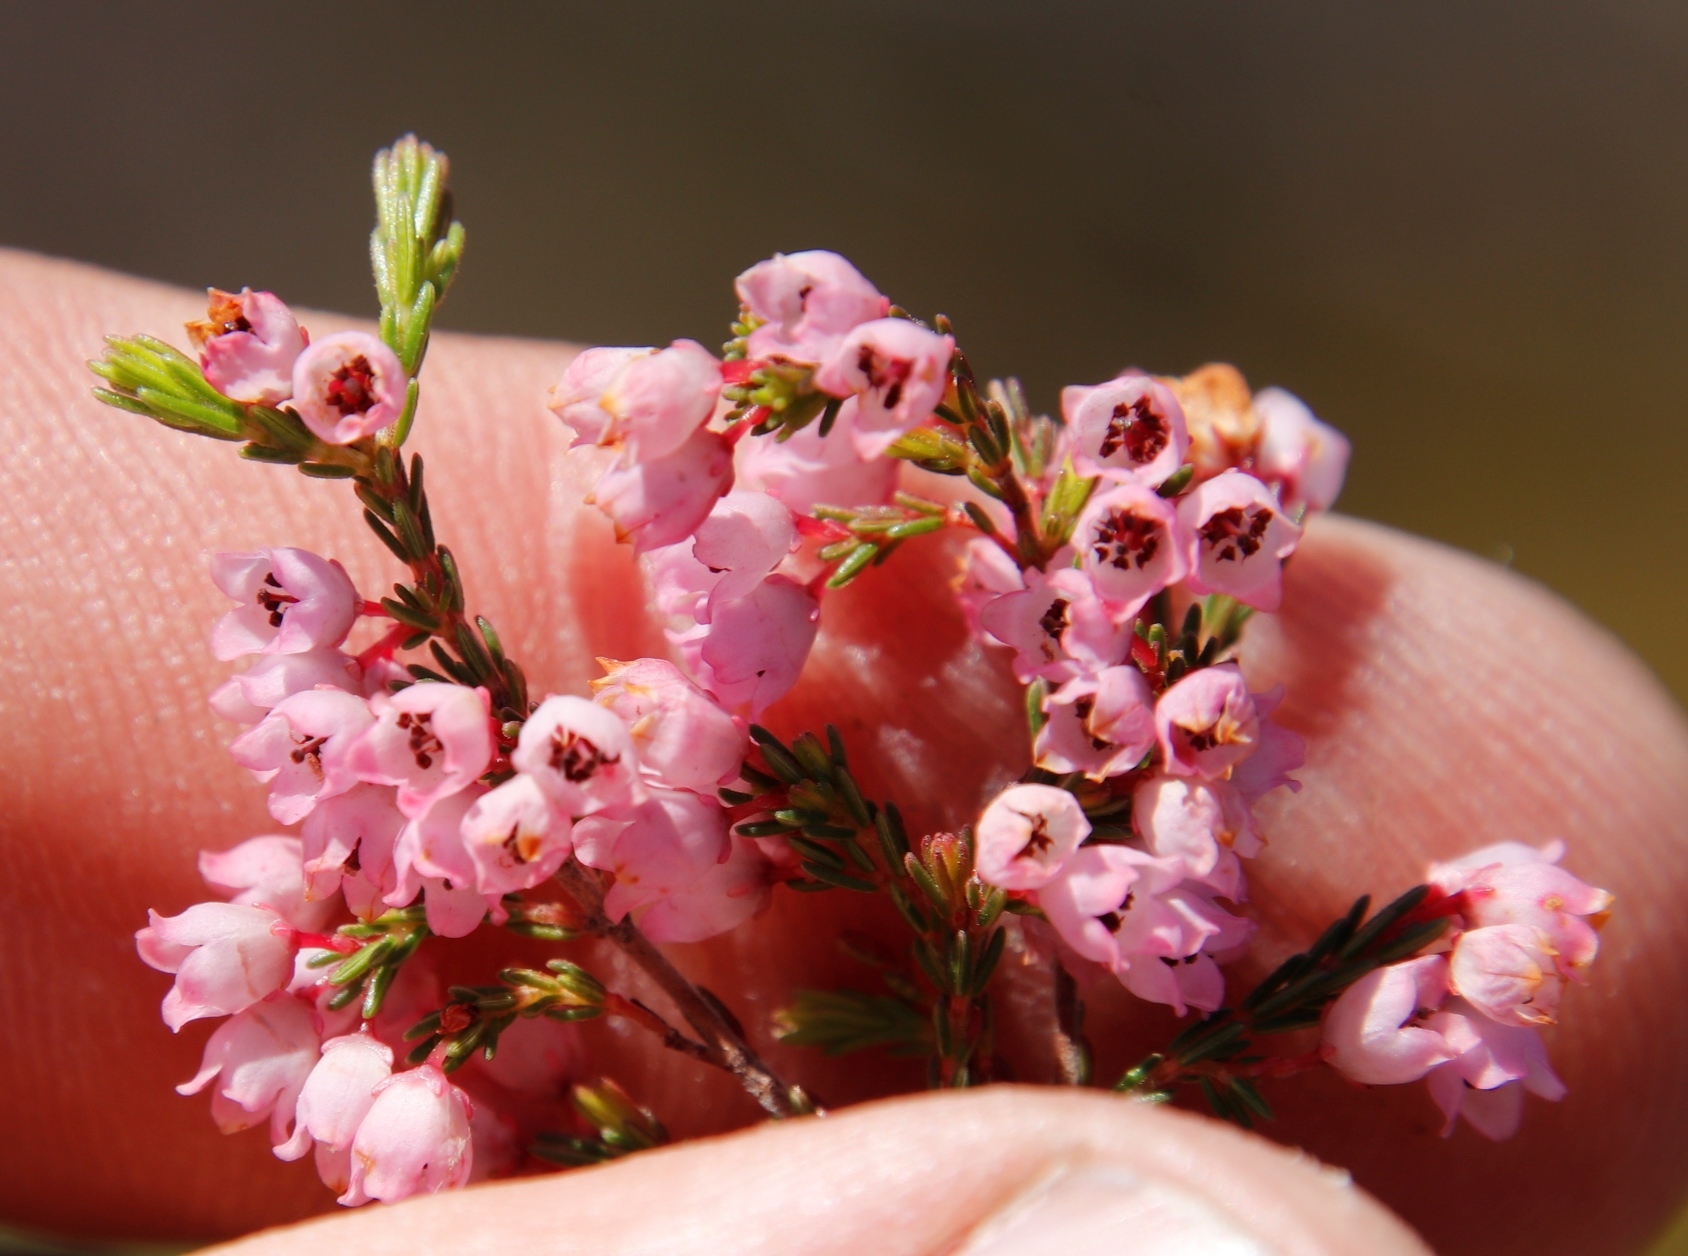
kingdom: Plantae
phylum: Tracheophyta
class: Magnoliopsida
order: Ericales
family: Ericaceae
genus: Erica
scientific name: Erica mauritanica
